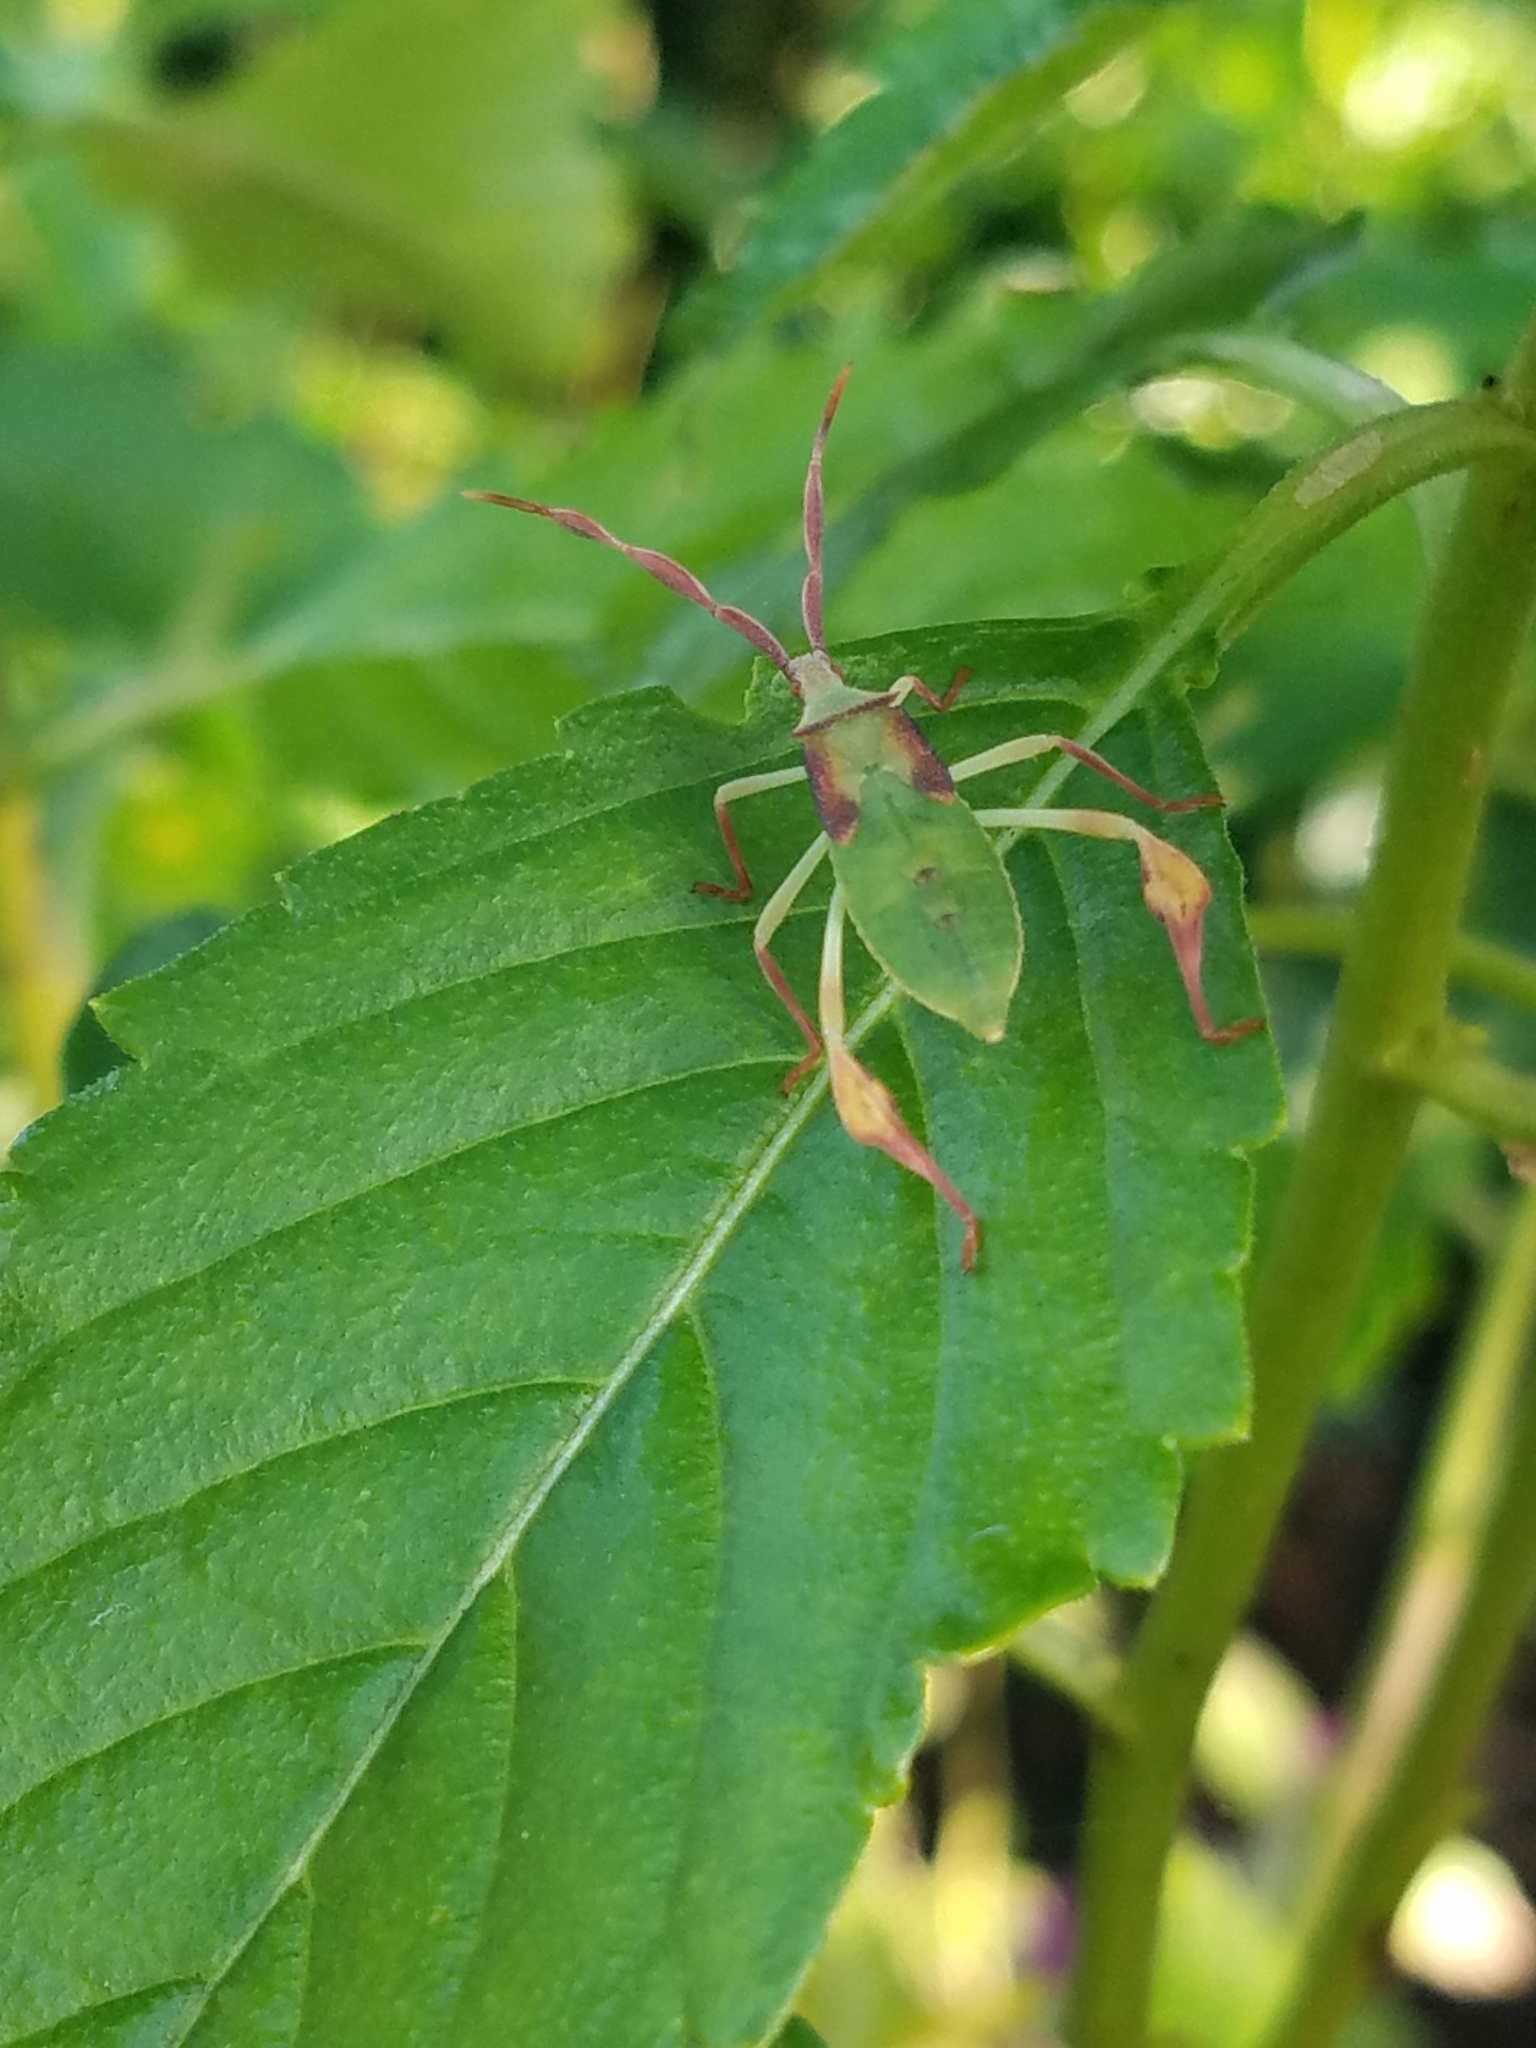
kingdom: Animalia
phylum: Arthropoda
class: Insecta
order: Hemiptera
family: Coreidae
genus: Chondrocera
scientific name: Chondrocera laticornis
